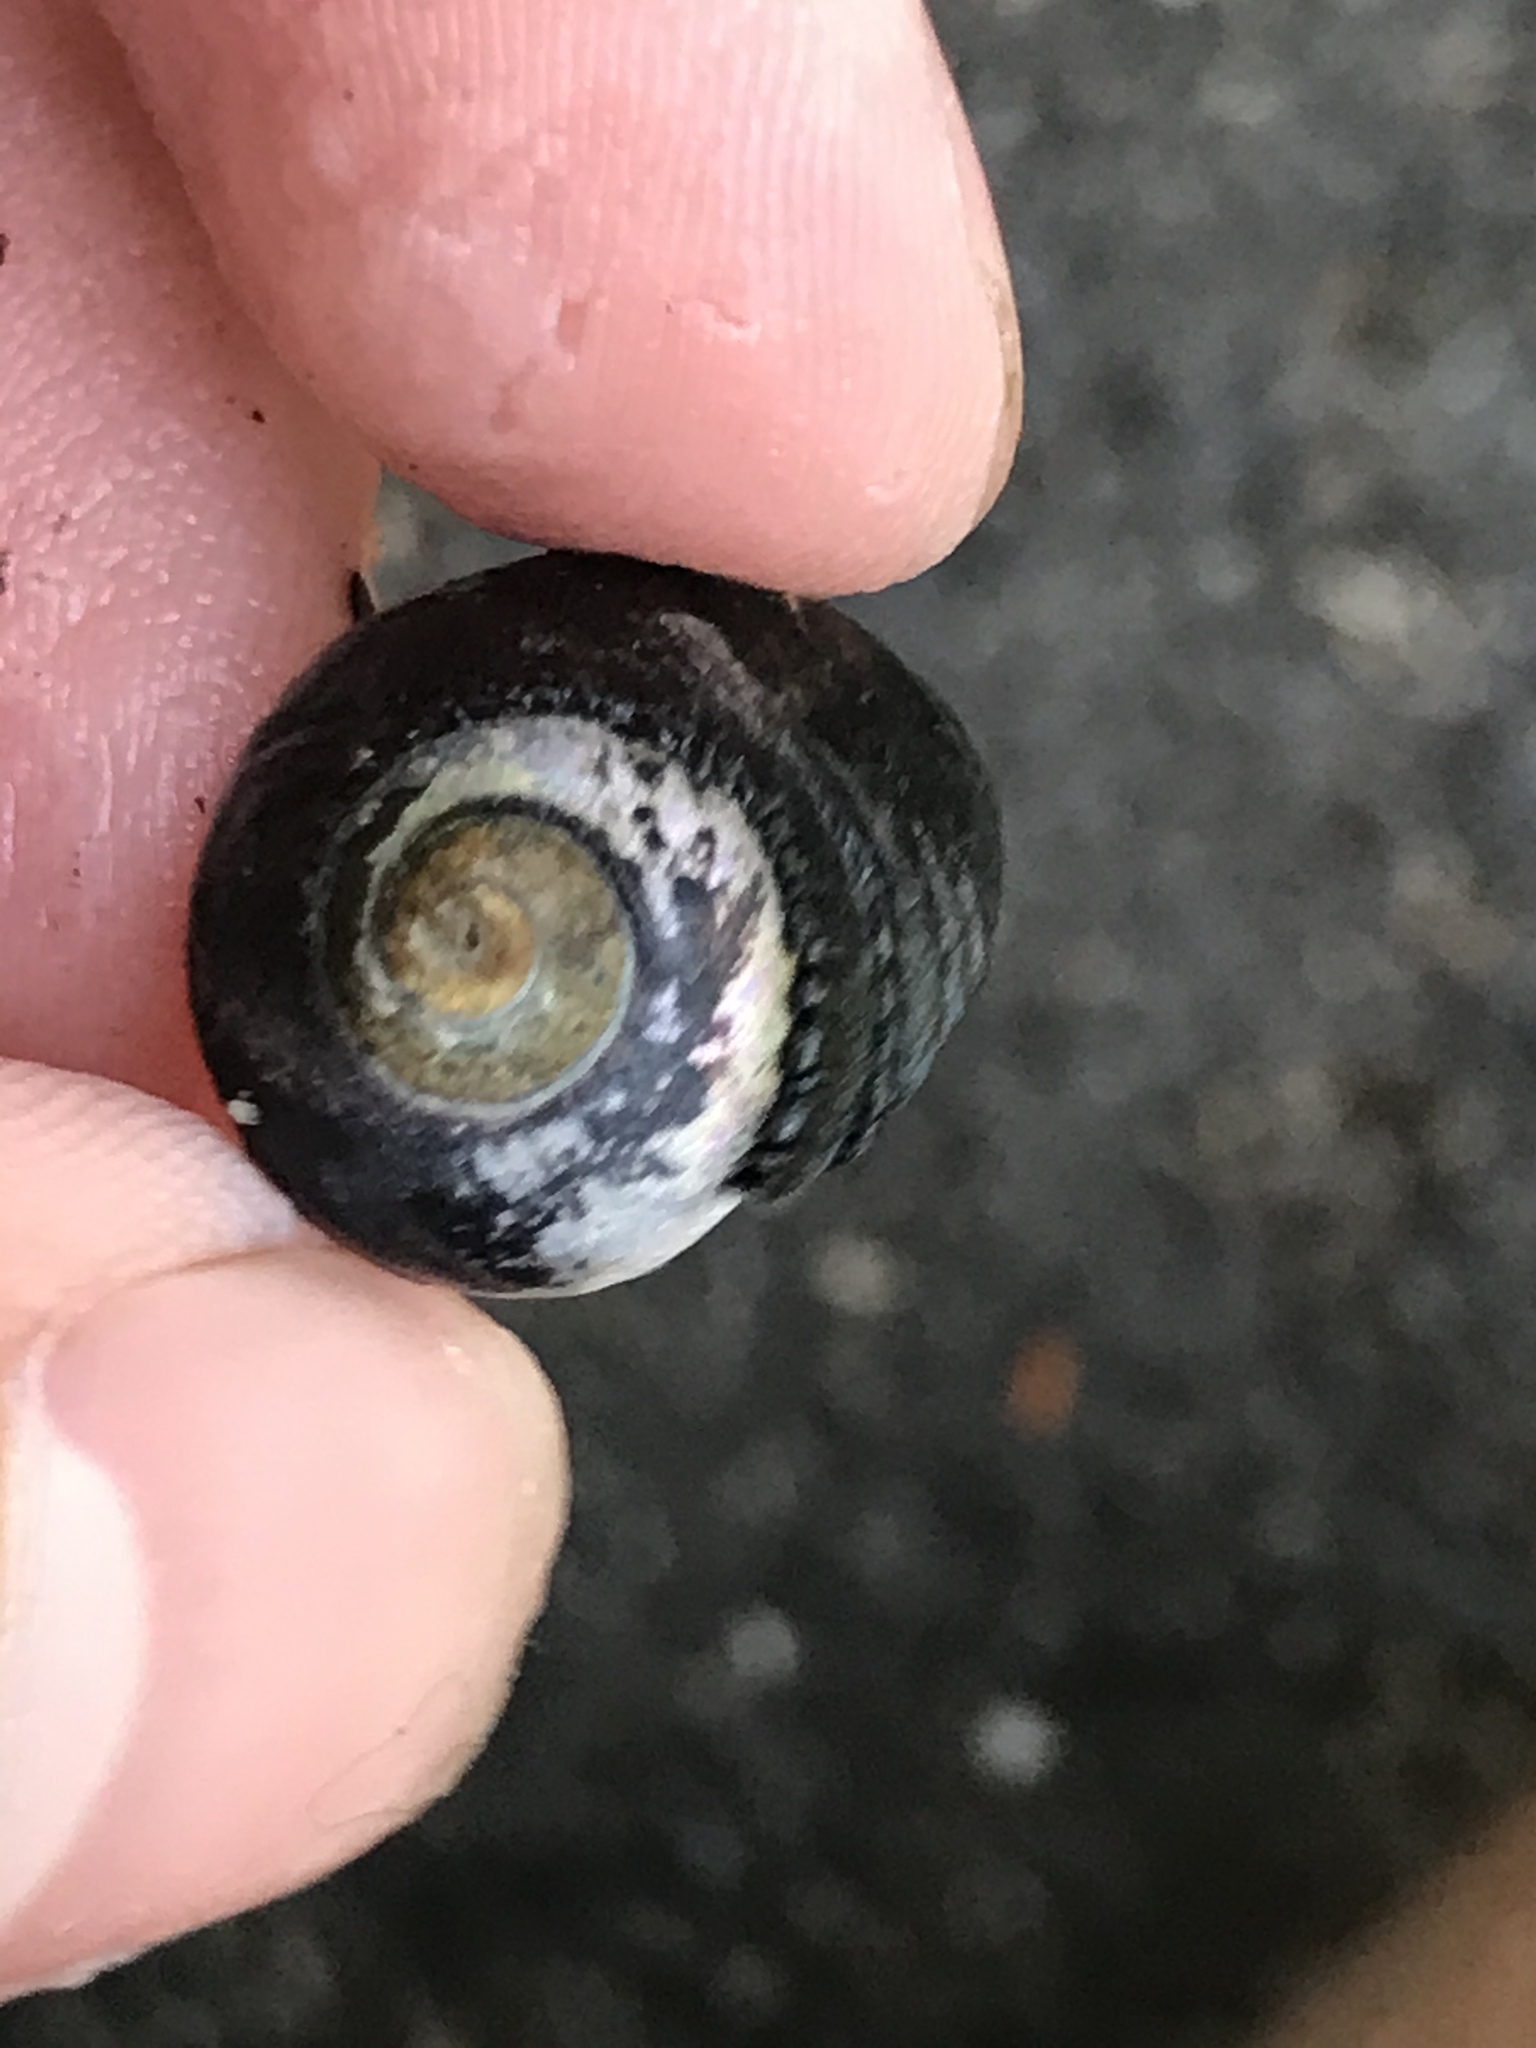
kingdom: Animalia
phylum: Mollusca
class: Gastropoda
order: Trochida
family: Tegulidae
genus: Tegula
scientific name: Tegula funebralis
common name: Black tegula
